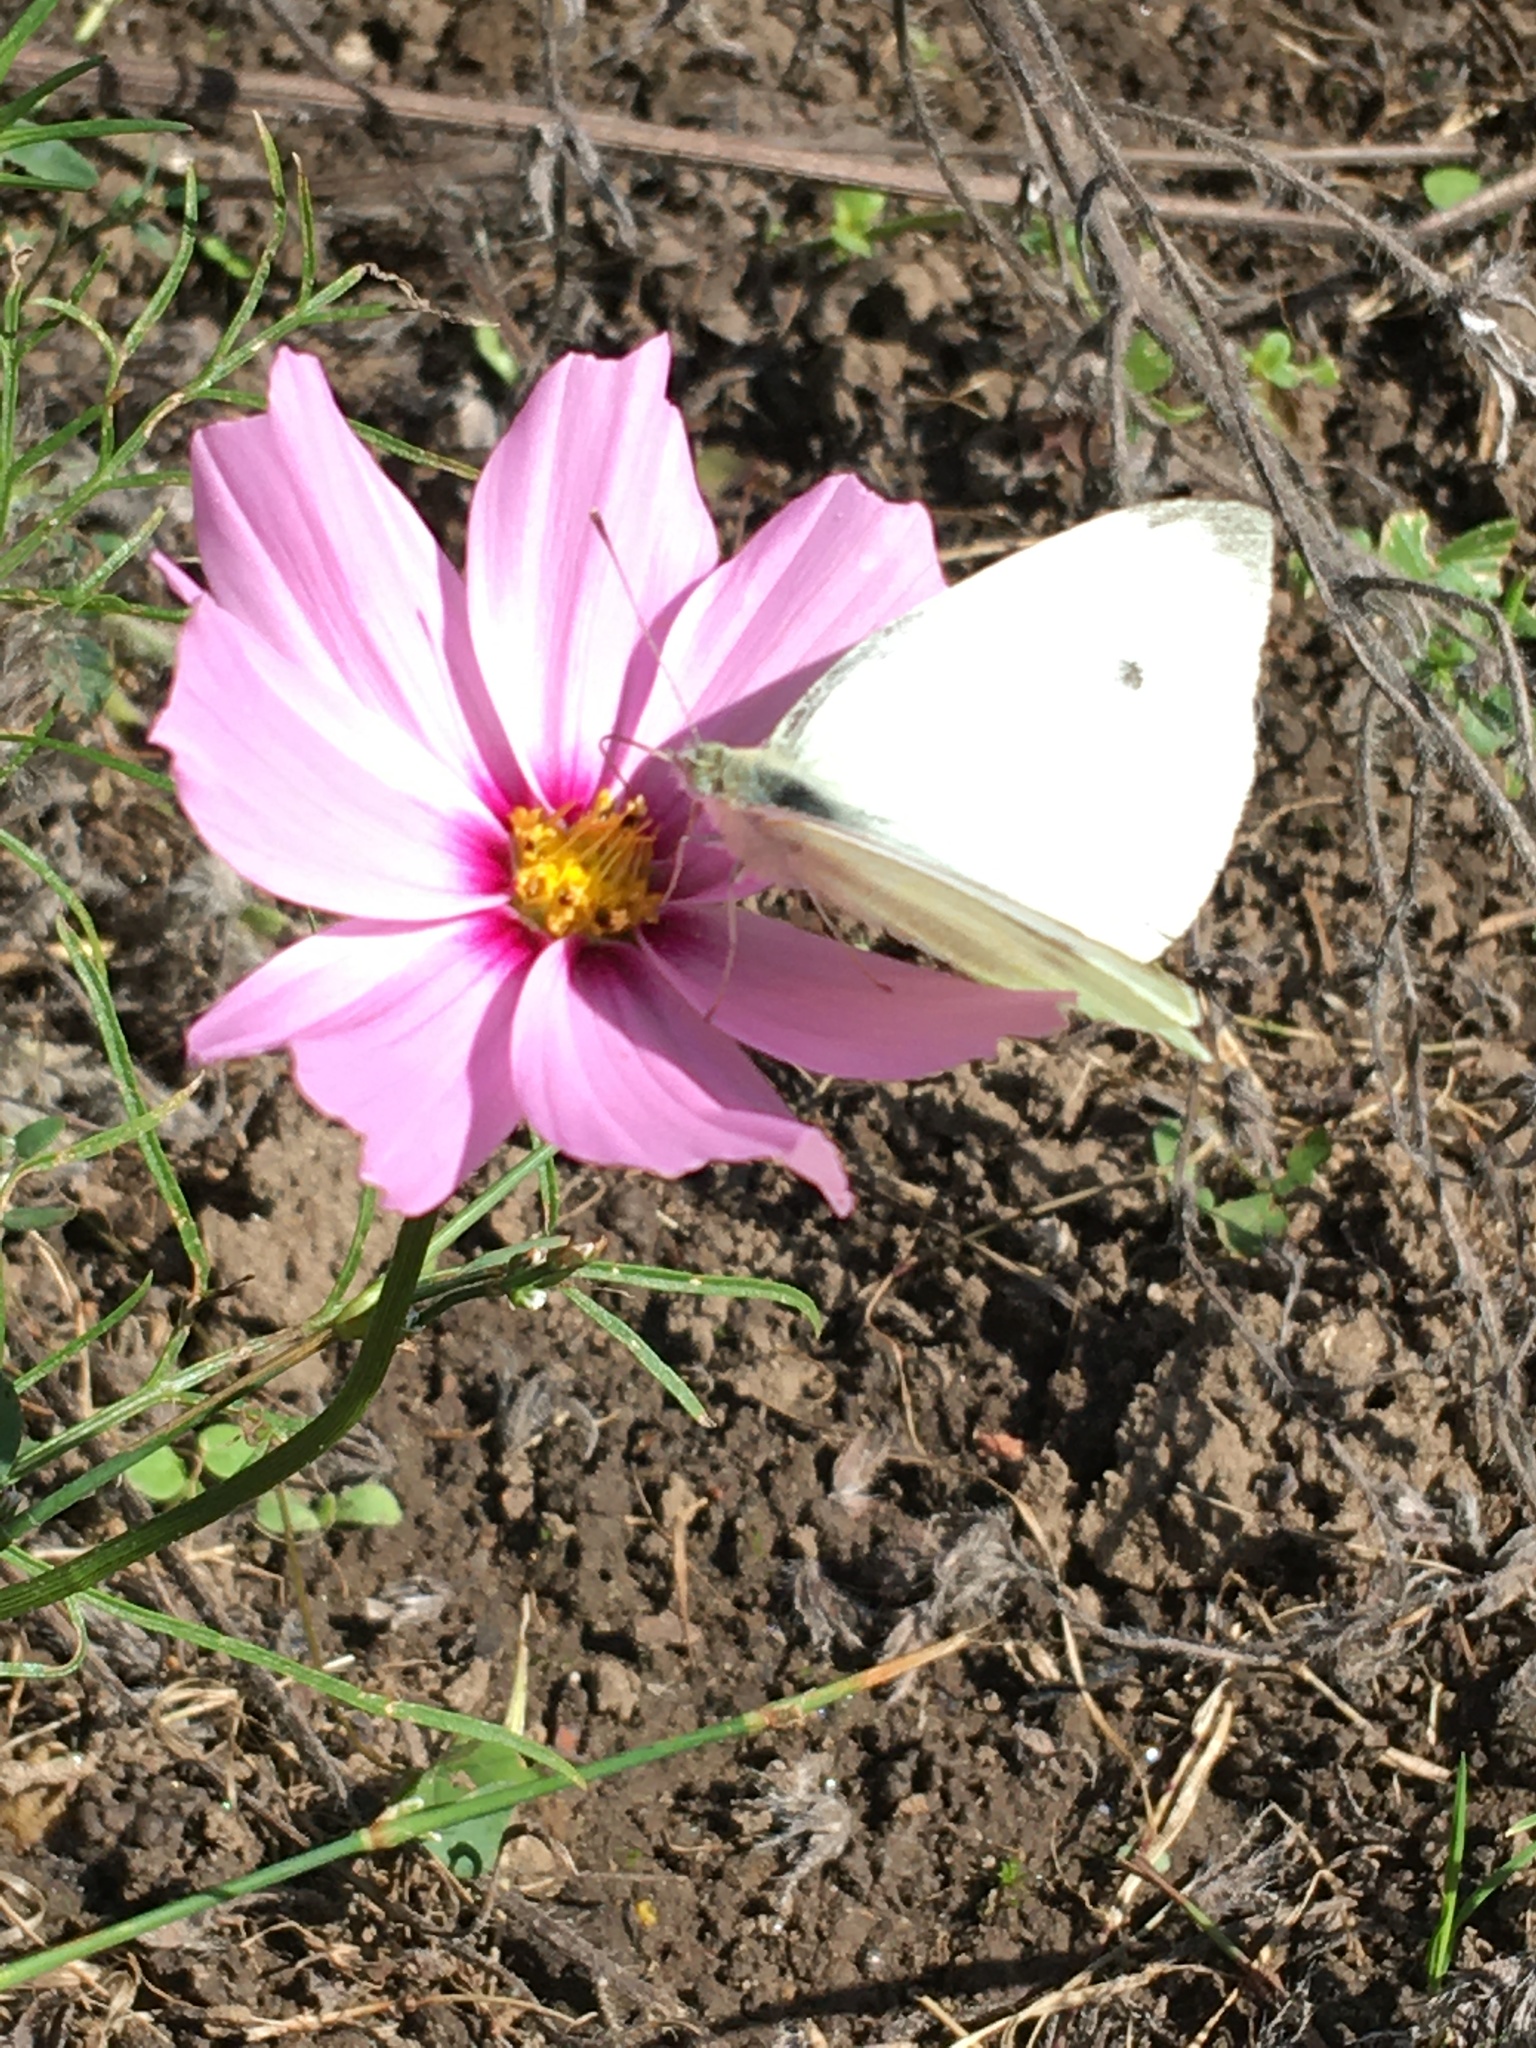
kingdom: Animalia
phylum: Arthropoda
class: Insecta
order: Lepidoptera
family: Pieridae
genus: Pieris
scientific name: Pieris rapae
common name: Small white
